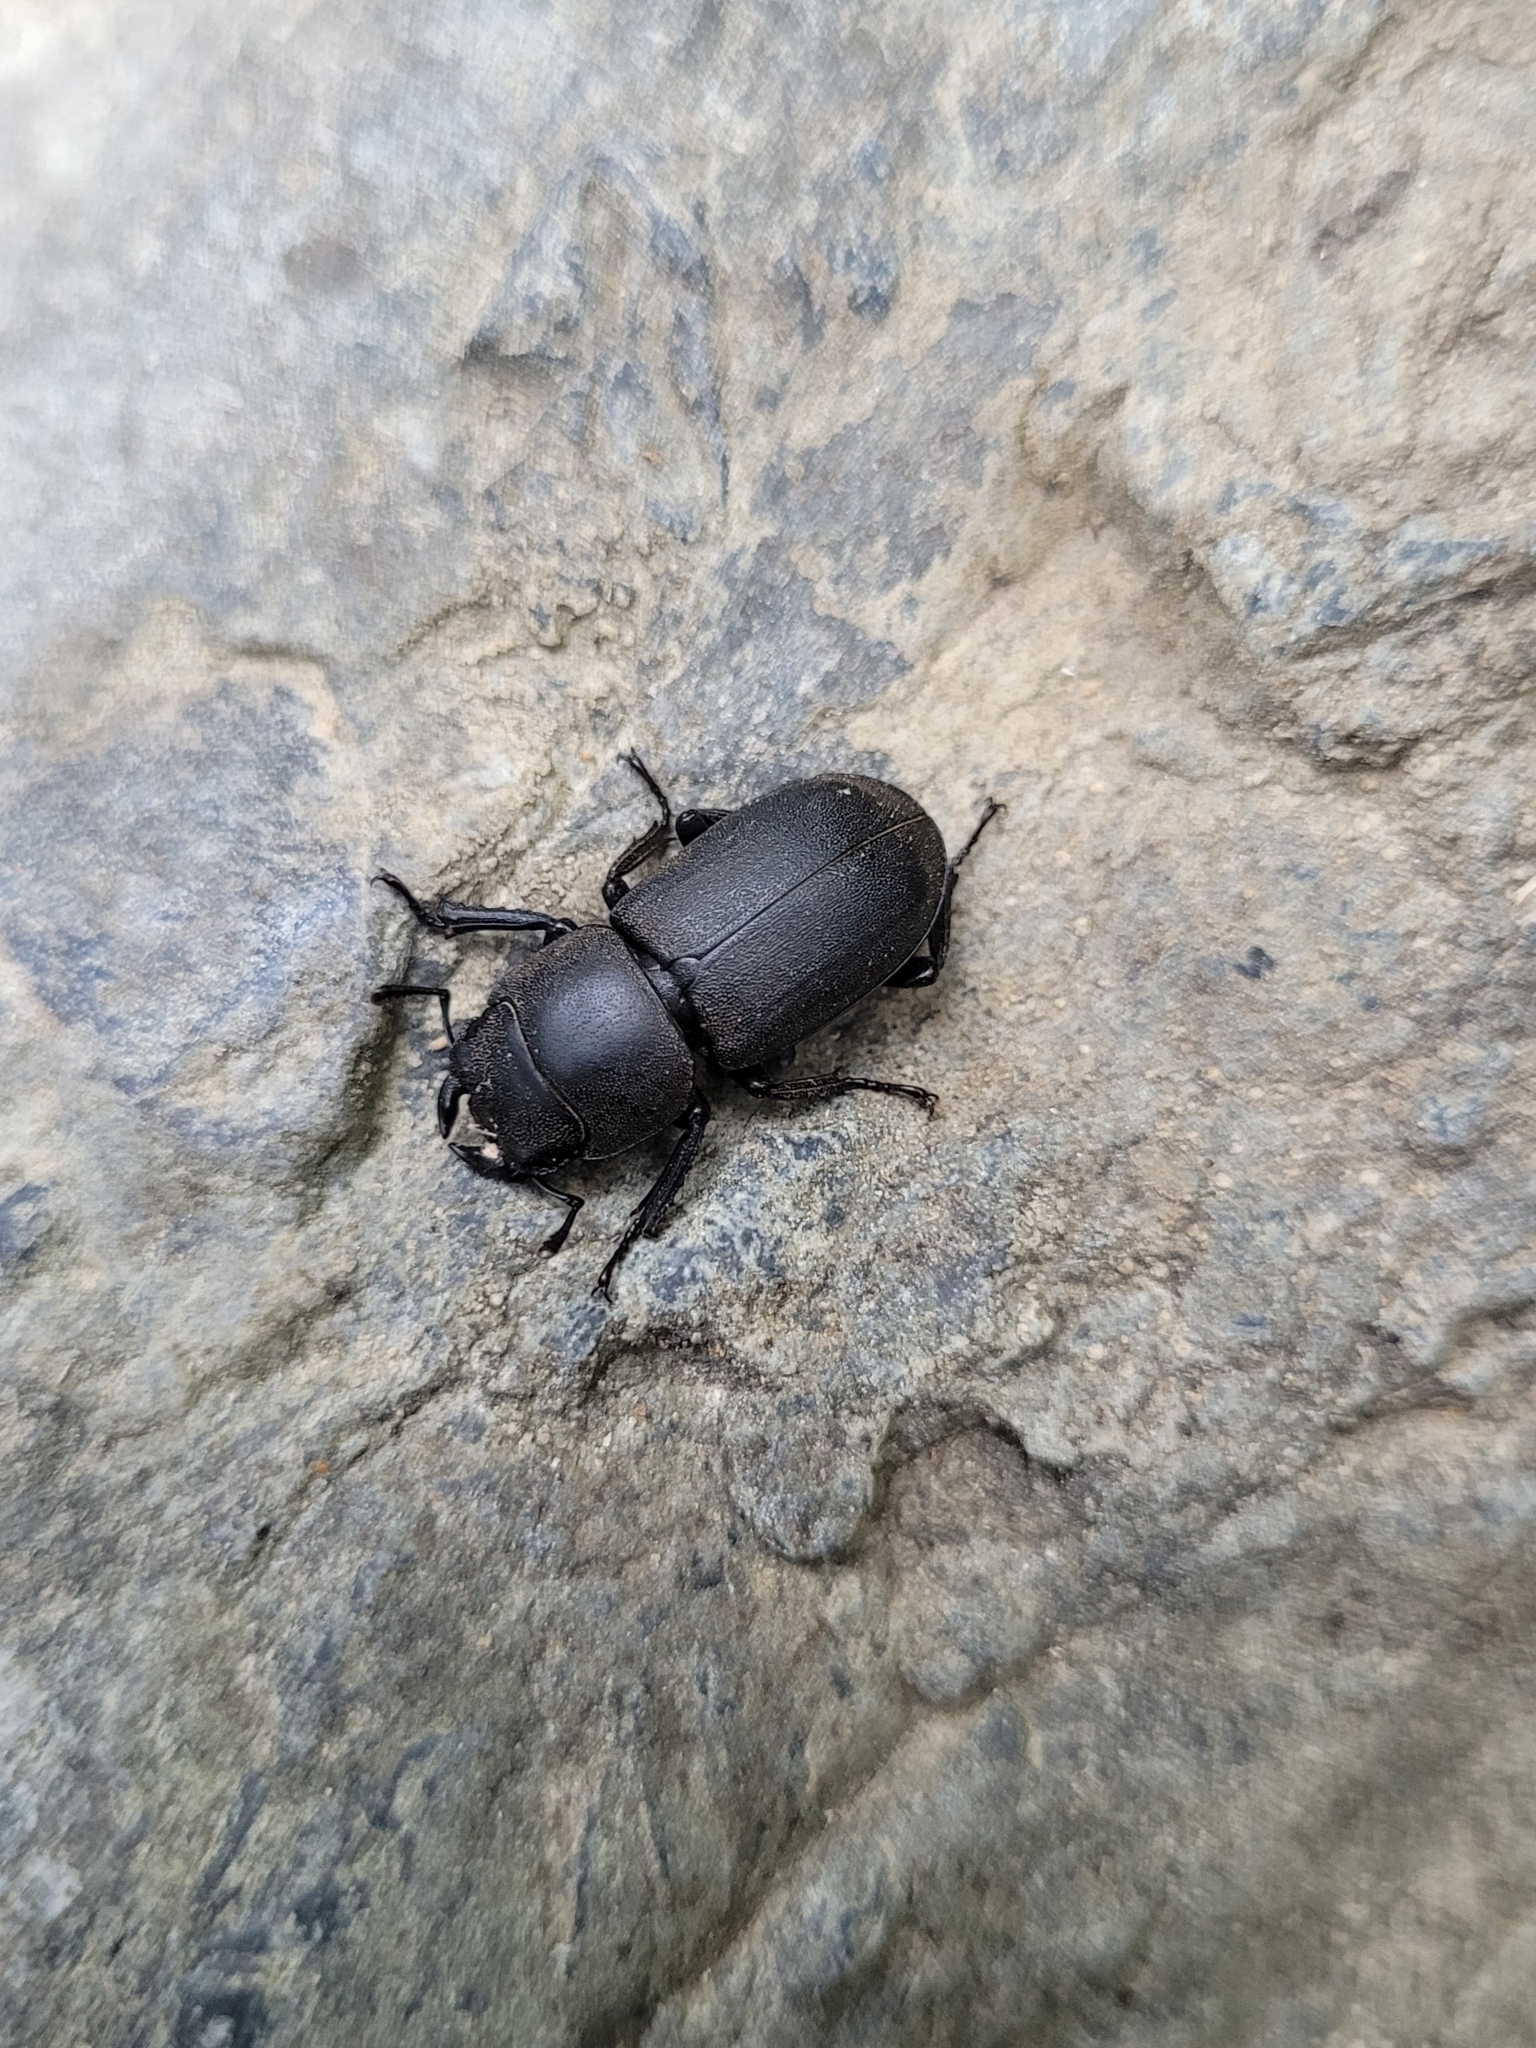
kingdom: Animalia
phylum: Arthropoda
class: Insecta
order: Coleoptera
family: Lucanidae
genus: Dorcus
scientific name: Dorcus parallelipipedus
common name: Lesser stag beetle
